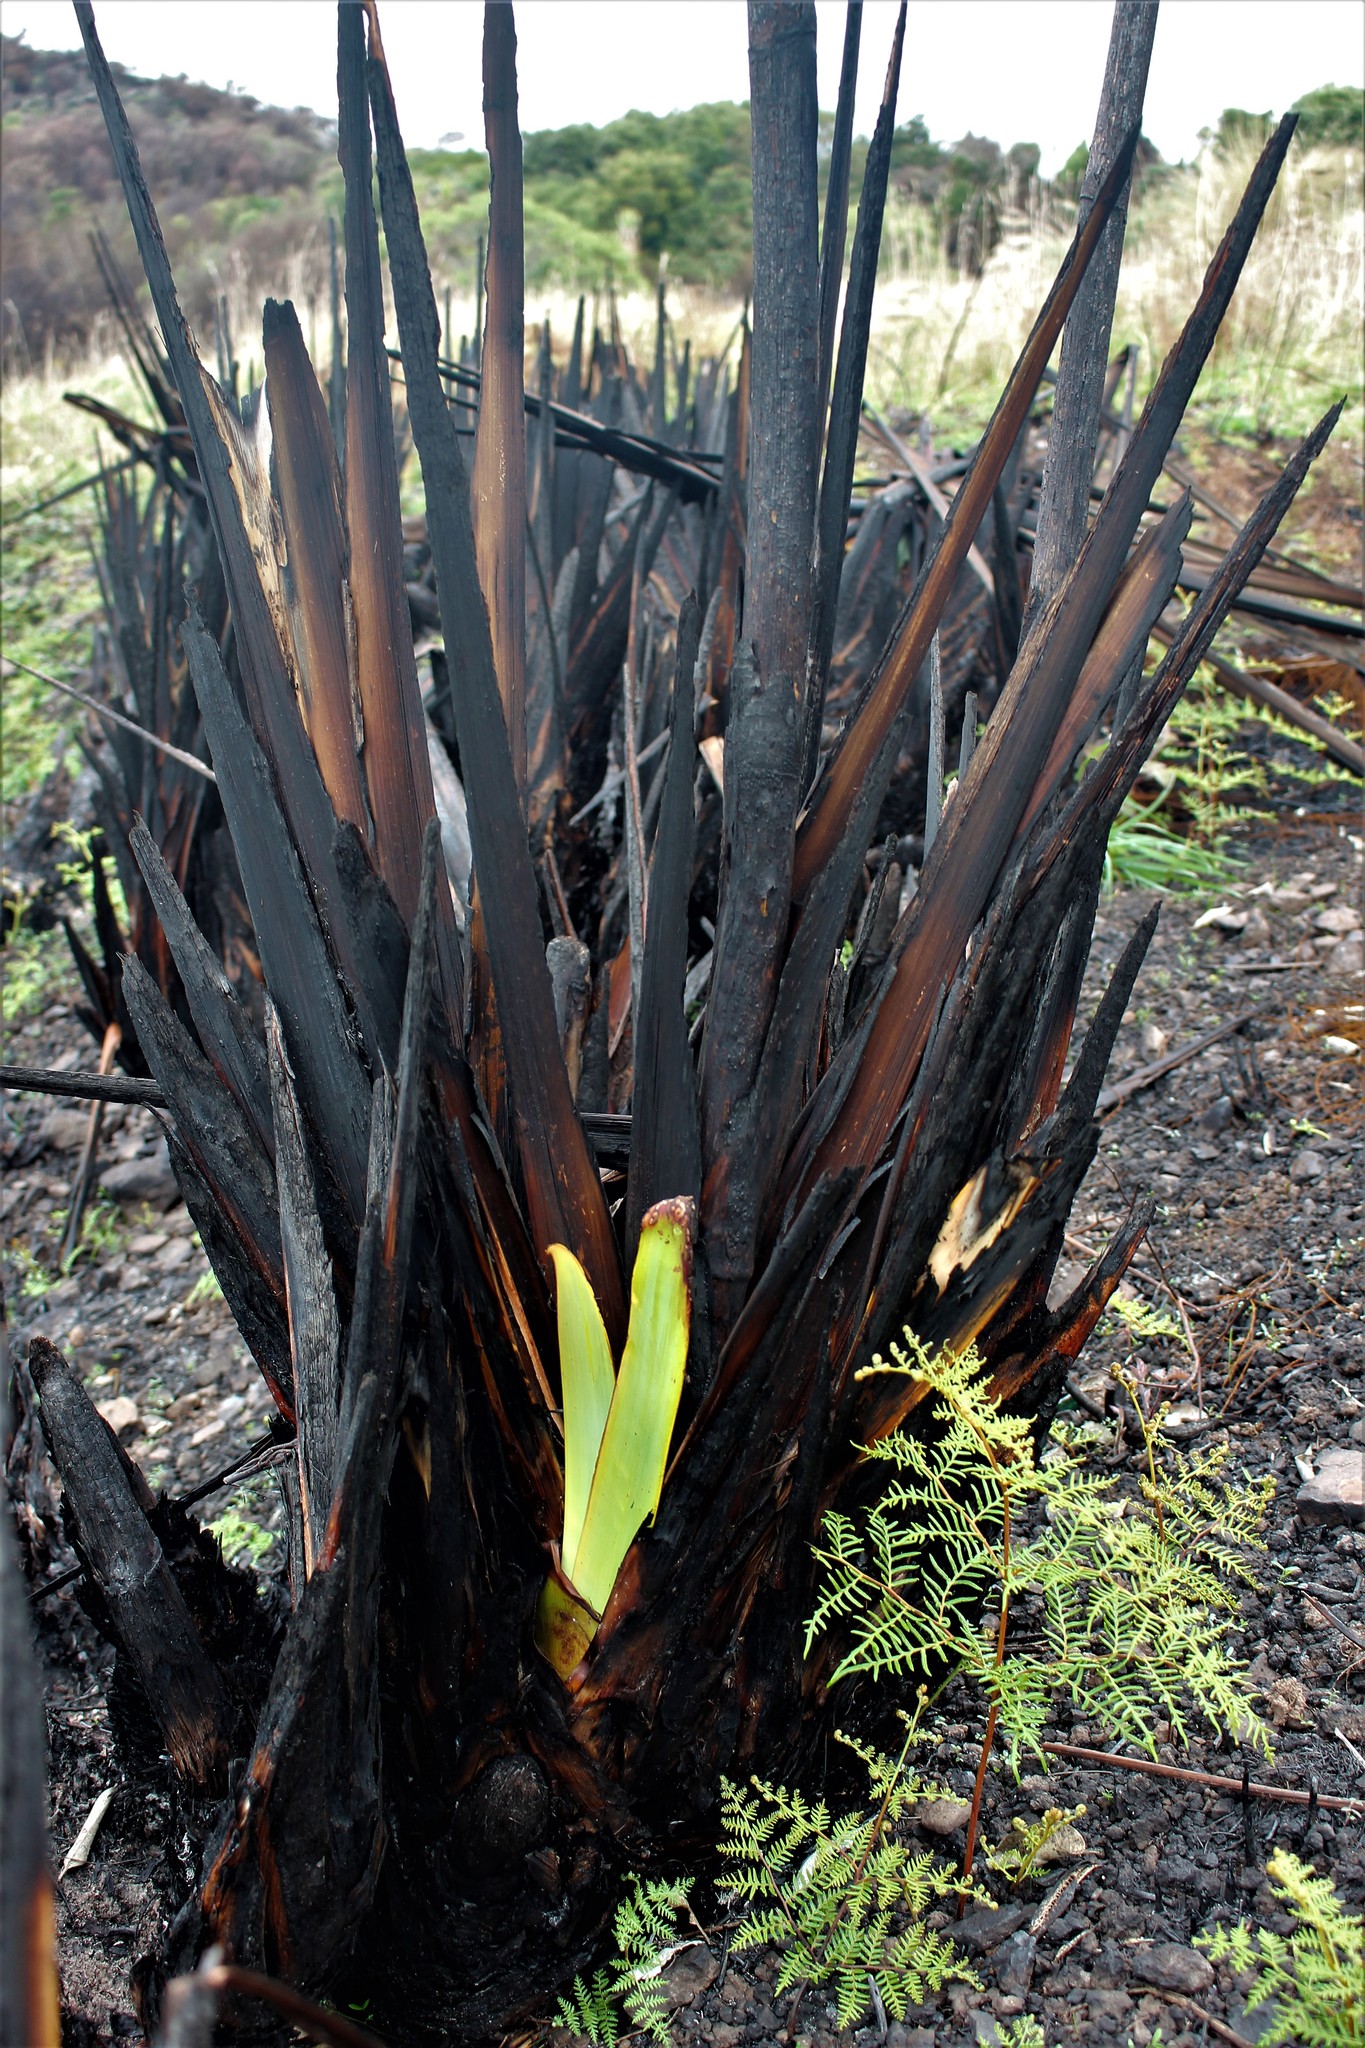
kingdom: Plantae
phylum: Tracheophyta
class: Liliopsida
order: Asparagales
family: Asphodelaceae
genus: Phormium
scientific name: Phormium tenax
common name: New zealand flax
